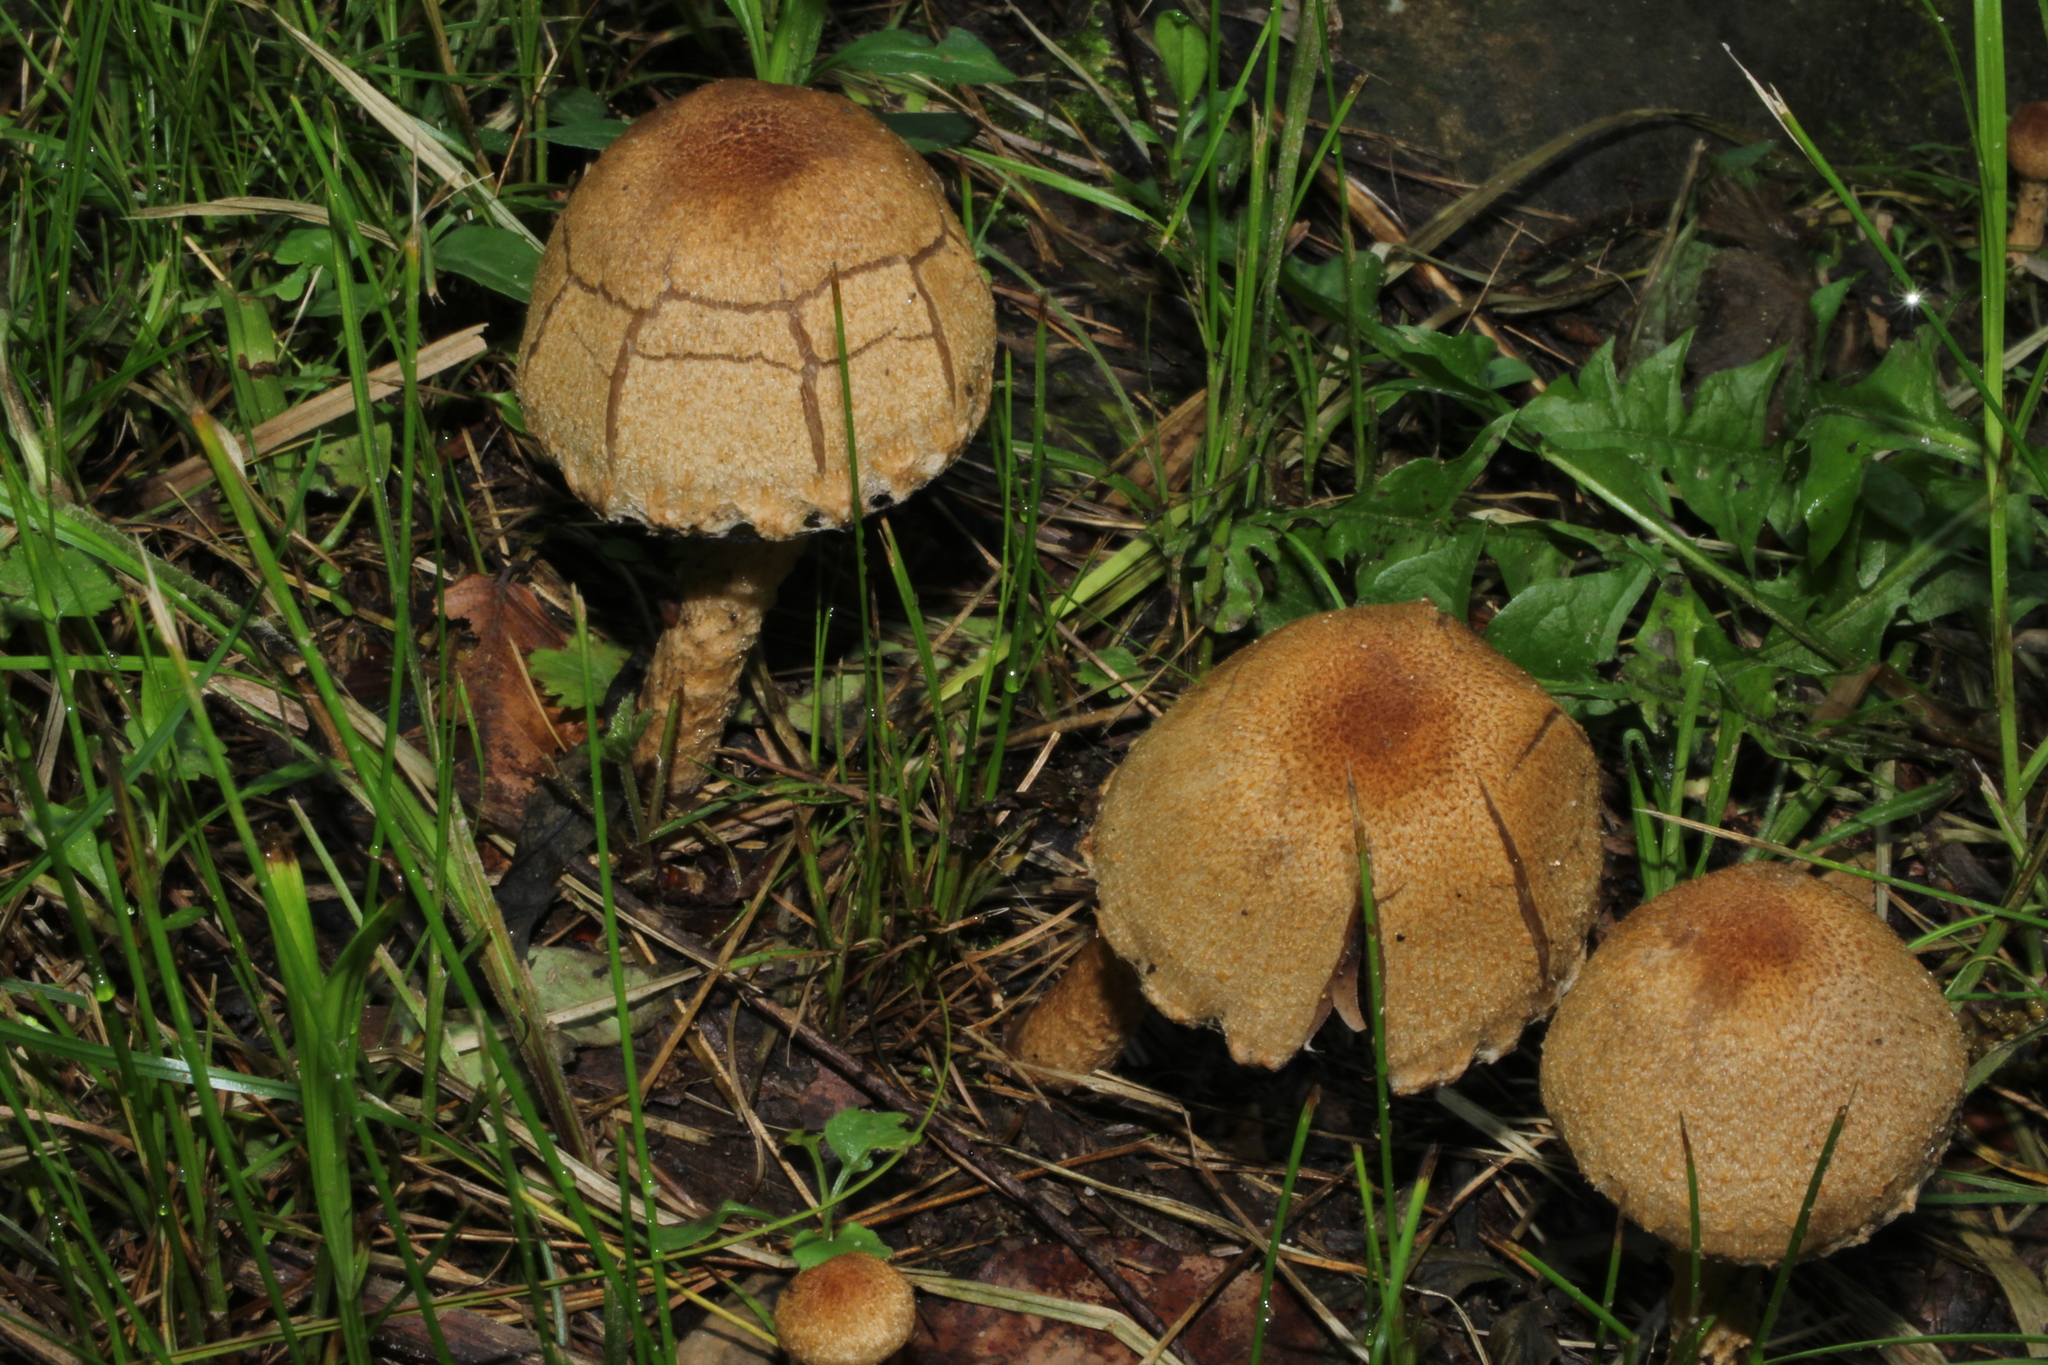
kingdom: Fungi
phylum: Basidiomycota
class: Agaricomycetes
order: Agaricales
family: Psathyrellaceae
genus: Lacrymaria
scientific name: Lacrymaria lacrymabunda
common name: Weeping widow
